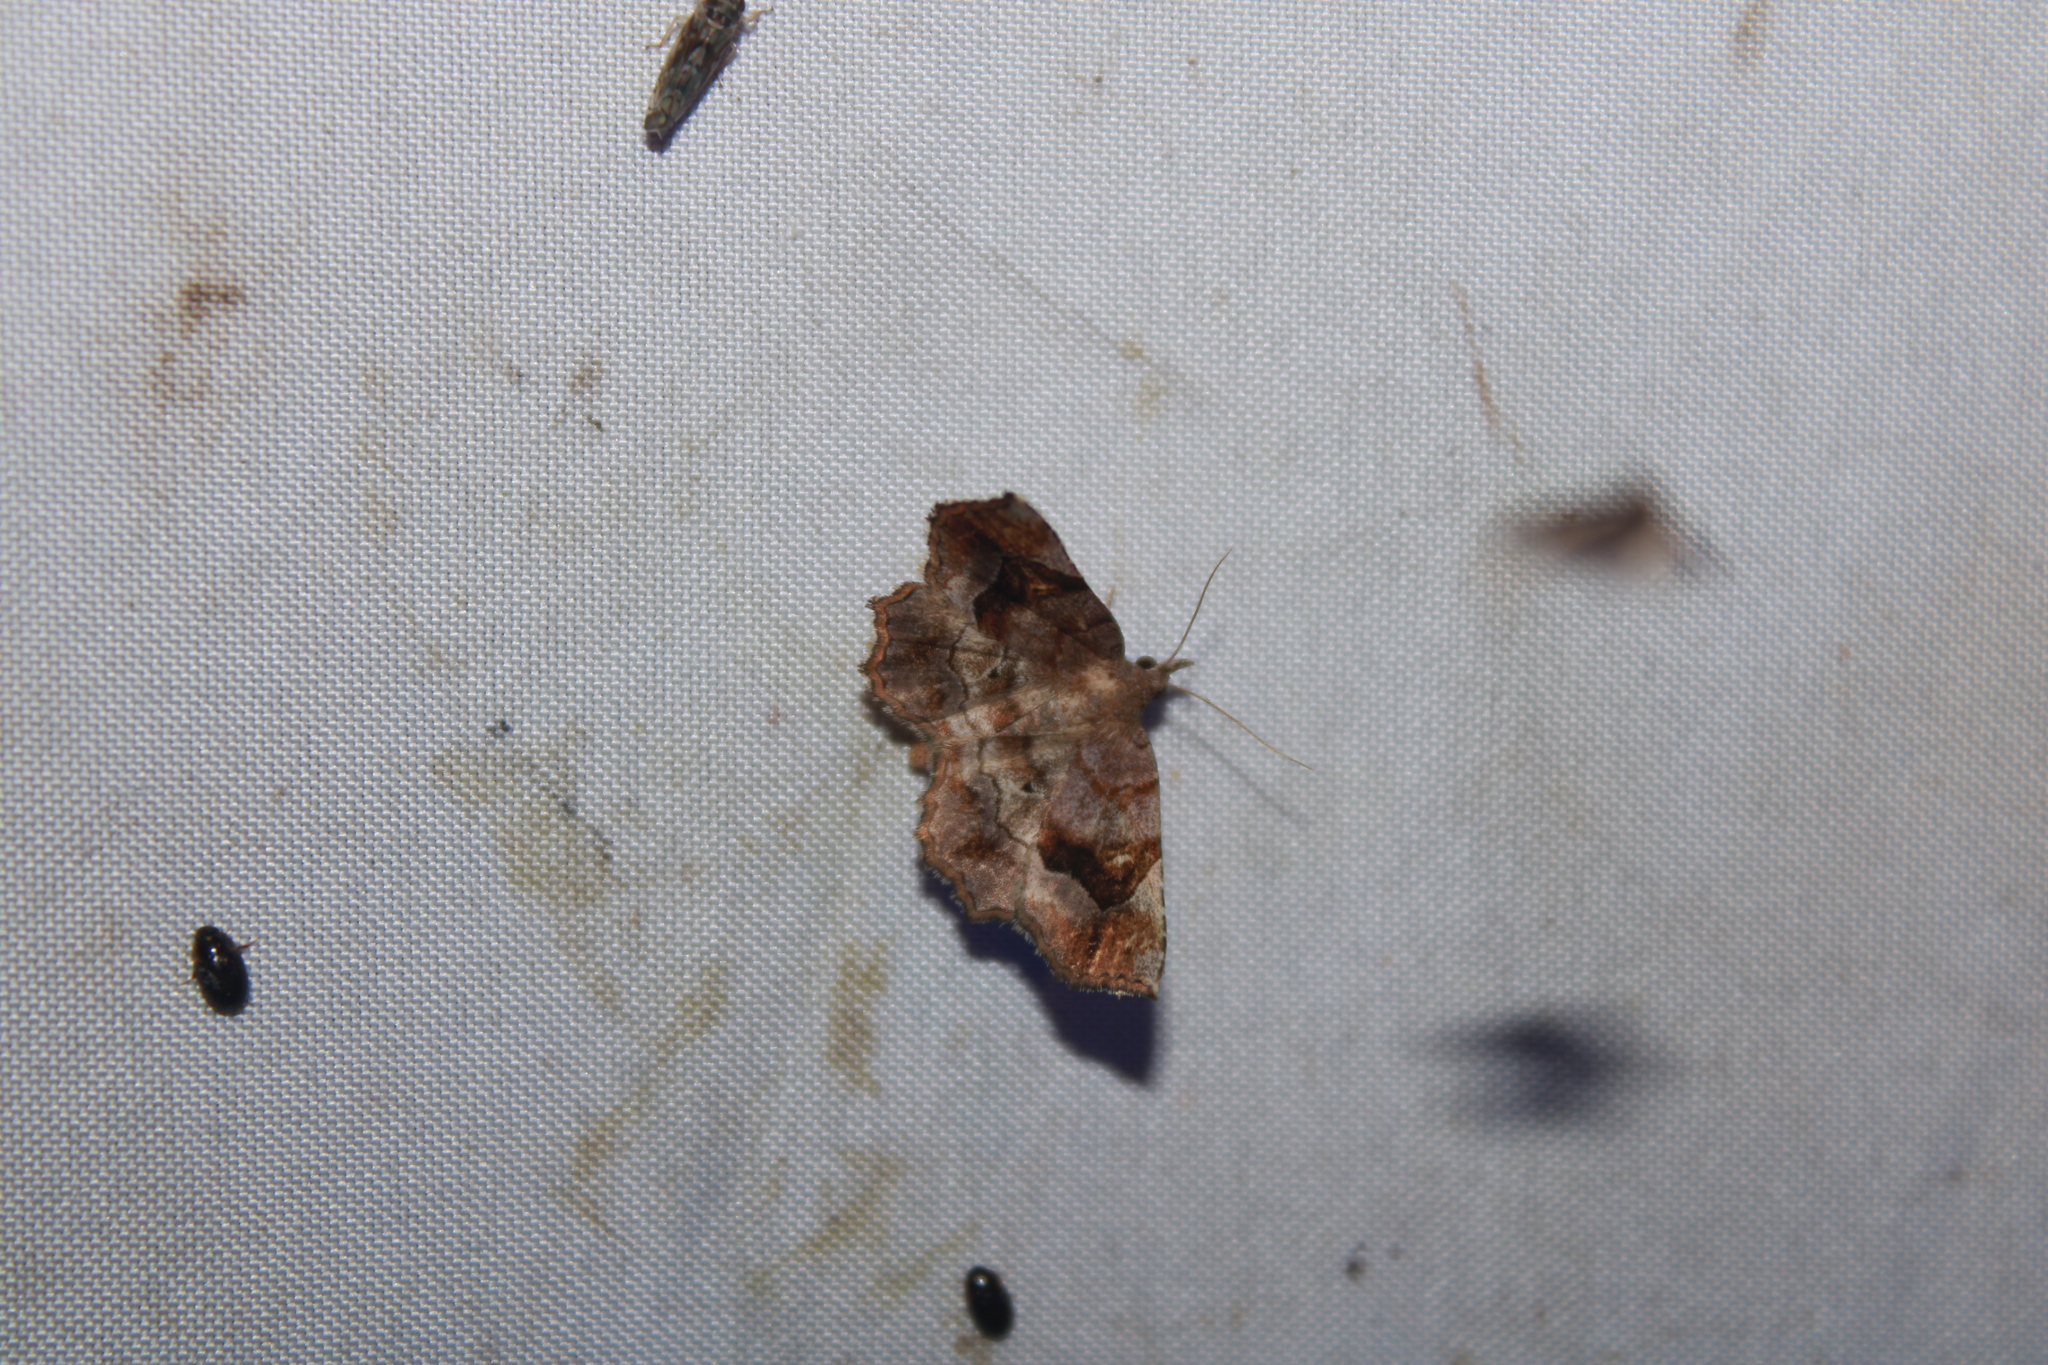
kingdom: Animalia
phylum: Arthropoda
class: Insecta
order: Lepidoptera
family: Erebidae
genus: Pangrapta
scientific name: Pangrapta decoralis
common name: Decorated owlet
